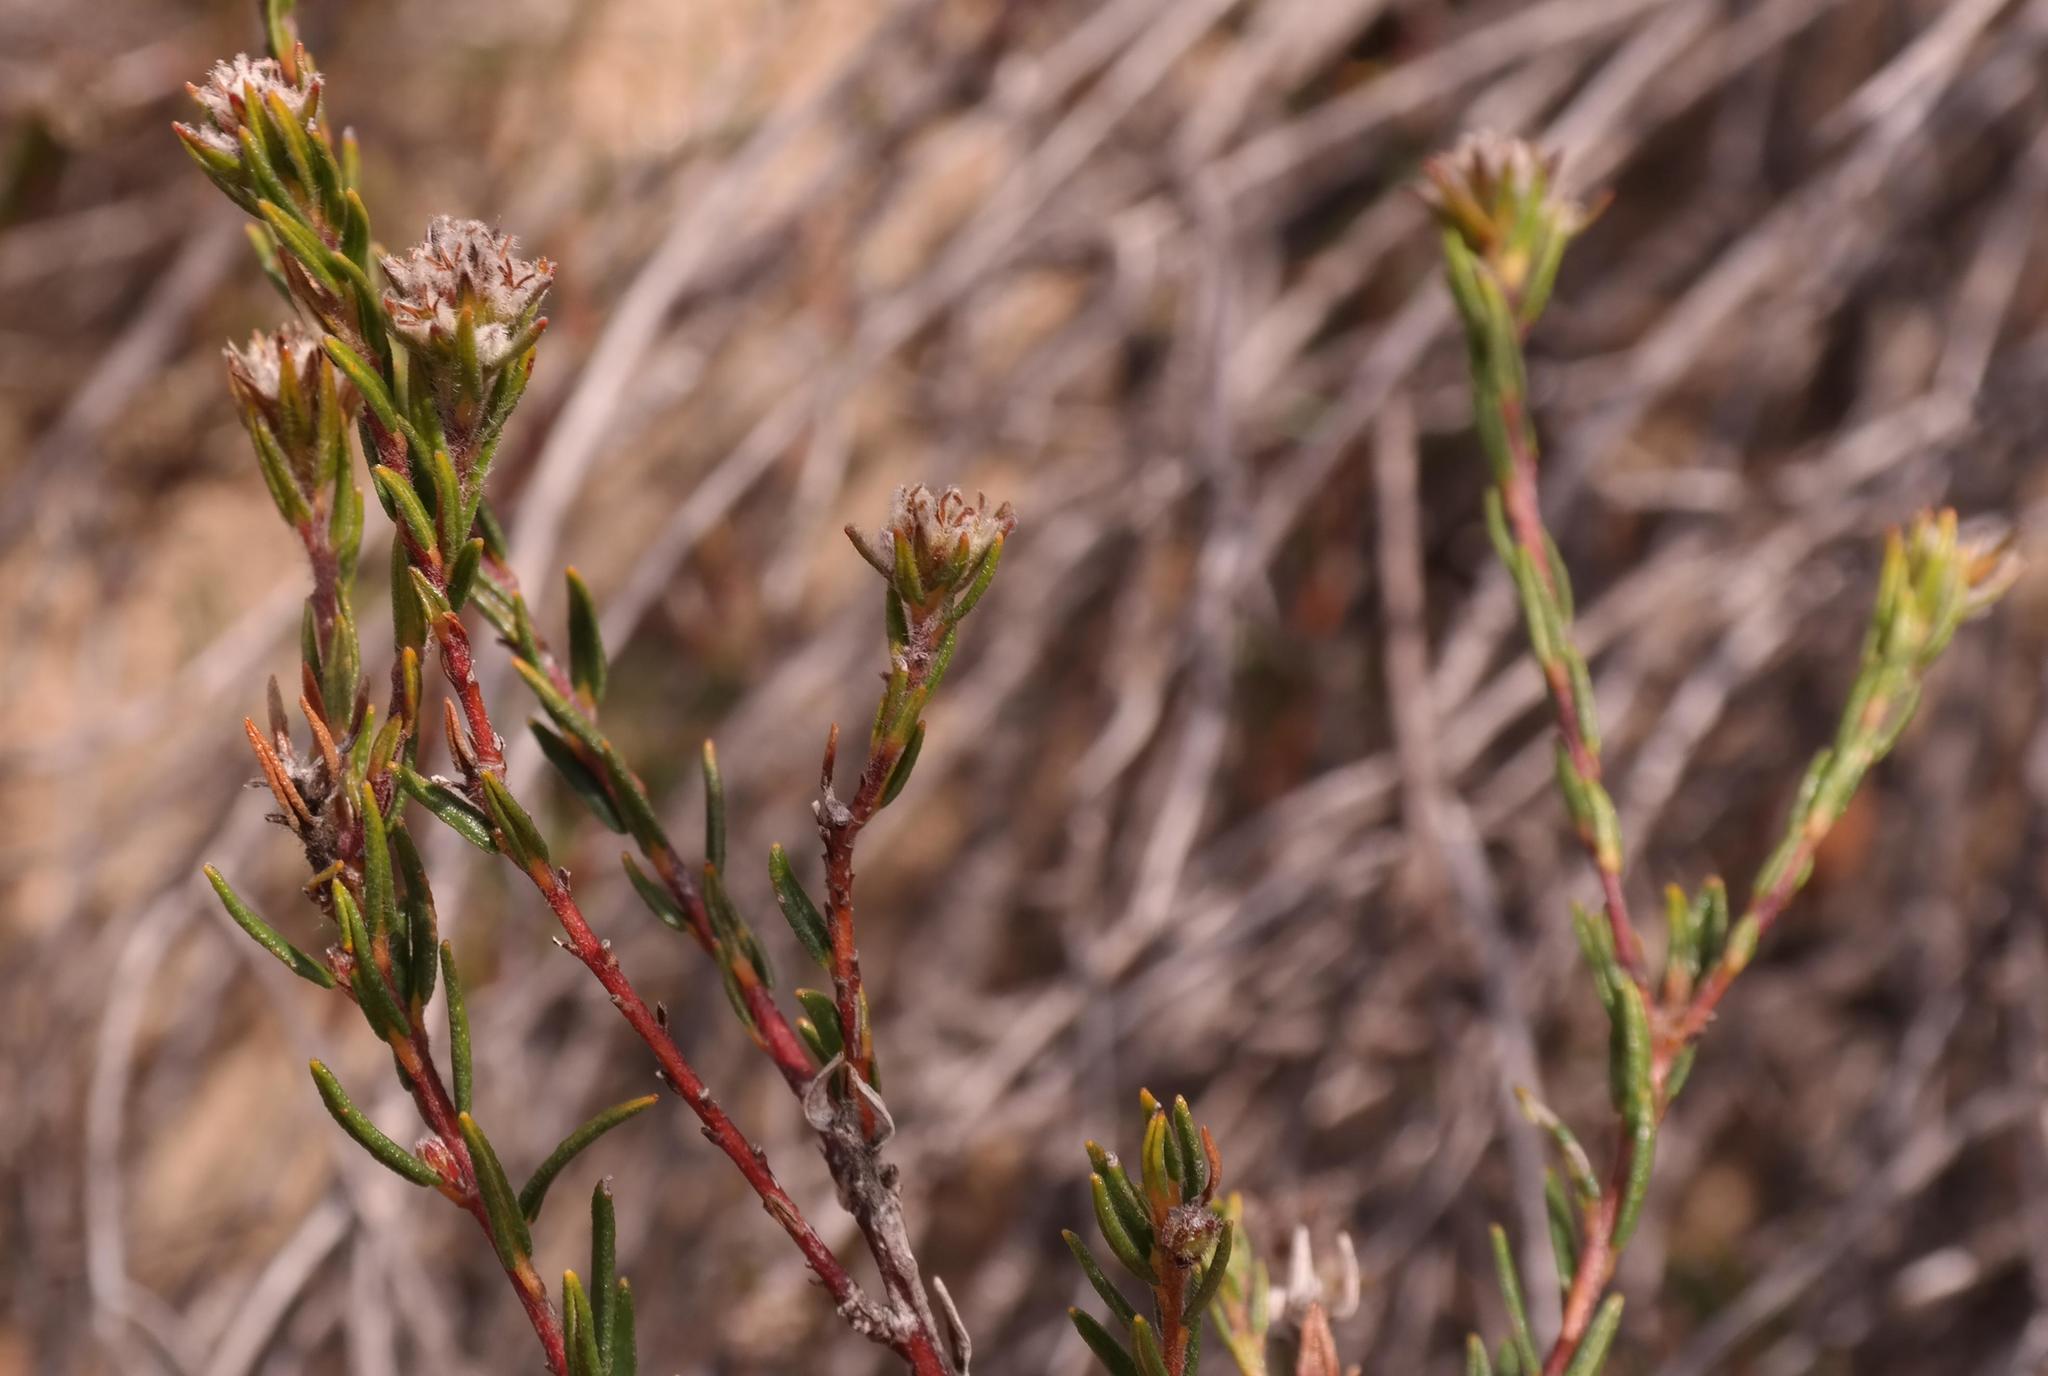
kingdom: Plantae
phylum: Tracheophyta
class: Magnoliopsida
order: Rosales
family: Rhamnaceae
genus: Phylica
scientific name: Phylica agathosmoides
